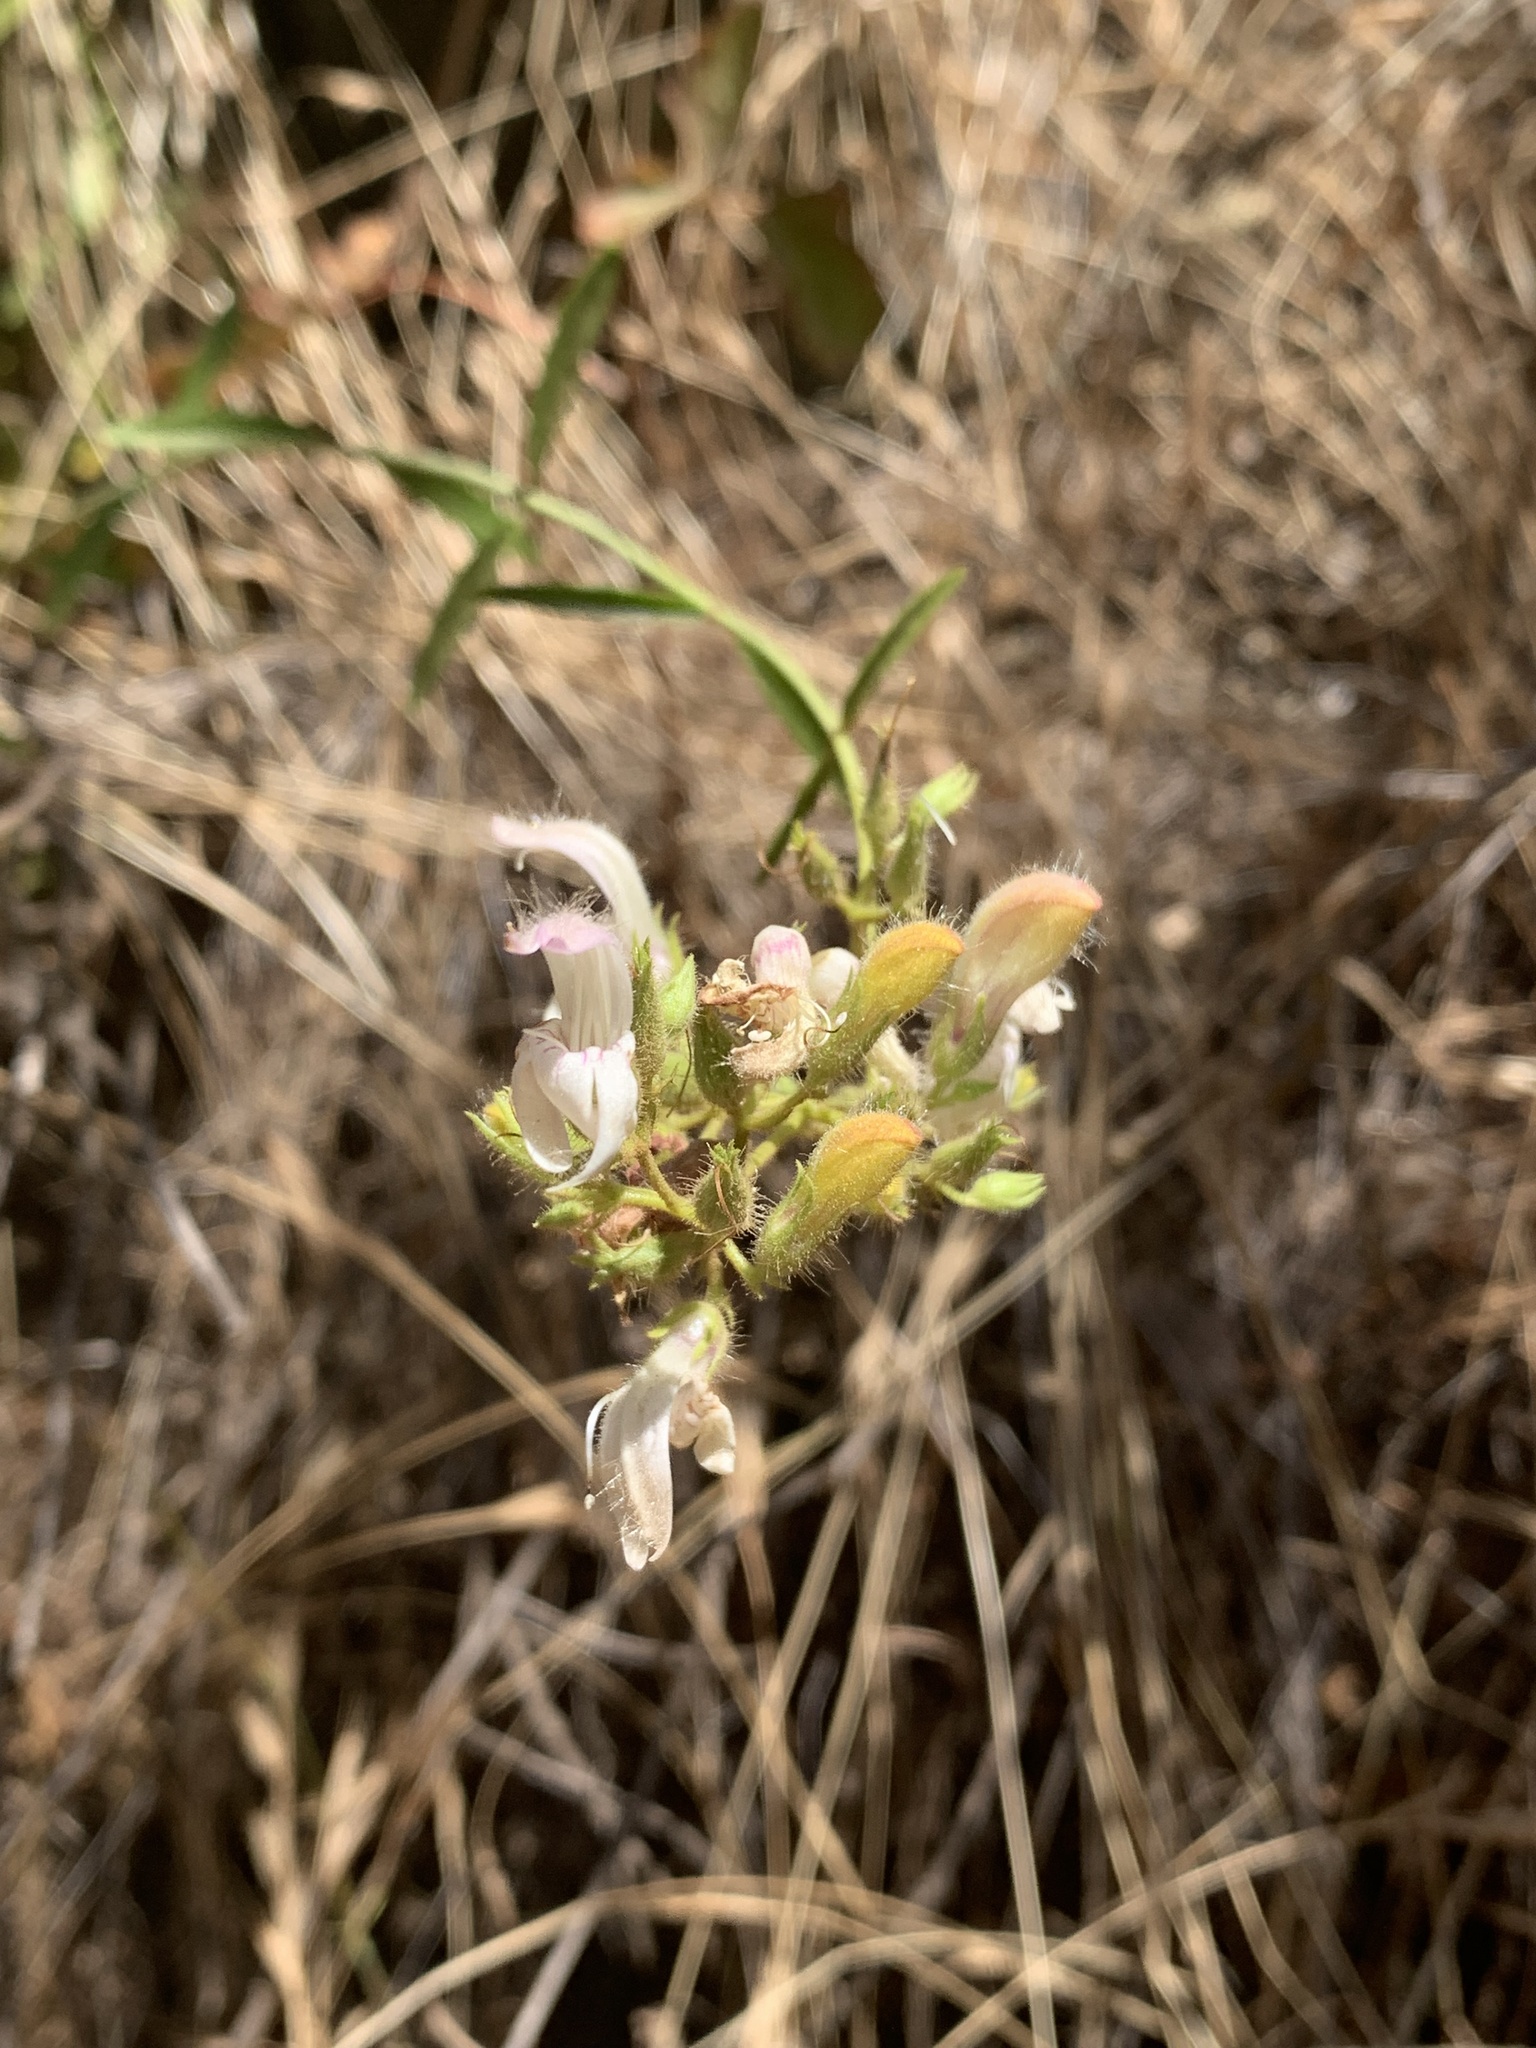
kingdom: Plantae
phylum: Tracheophyta
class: Magnoliopsida
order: Lamiales
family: Plantaginaceae
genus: Keckiella
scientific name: Keckiella breviflora
